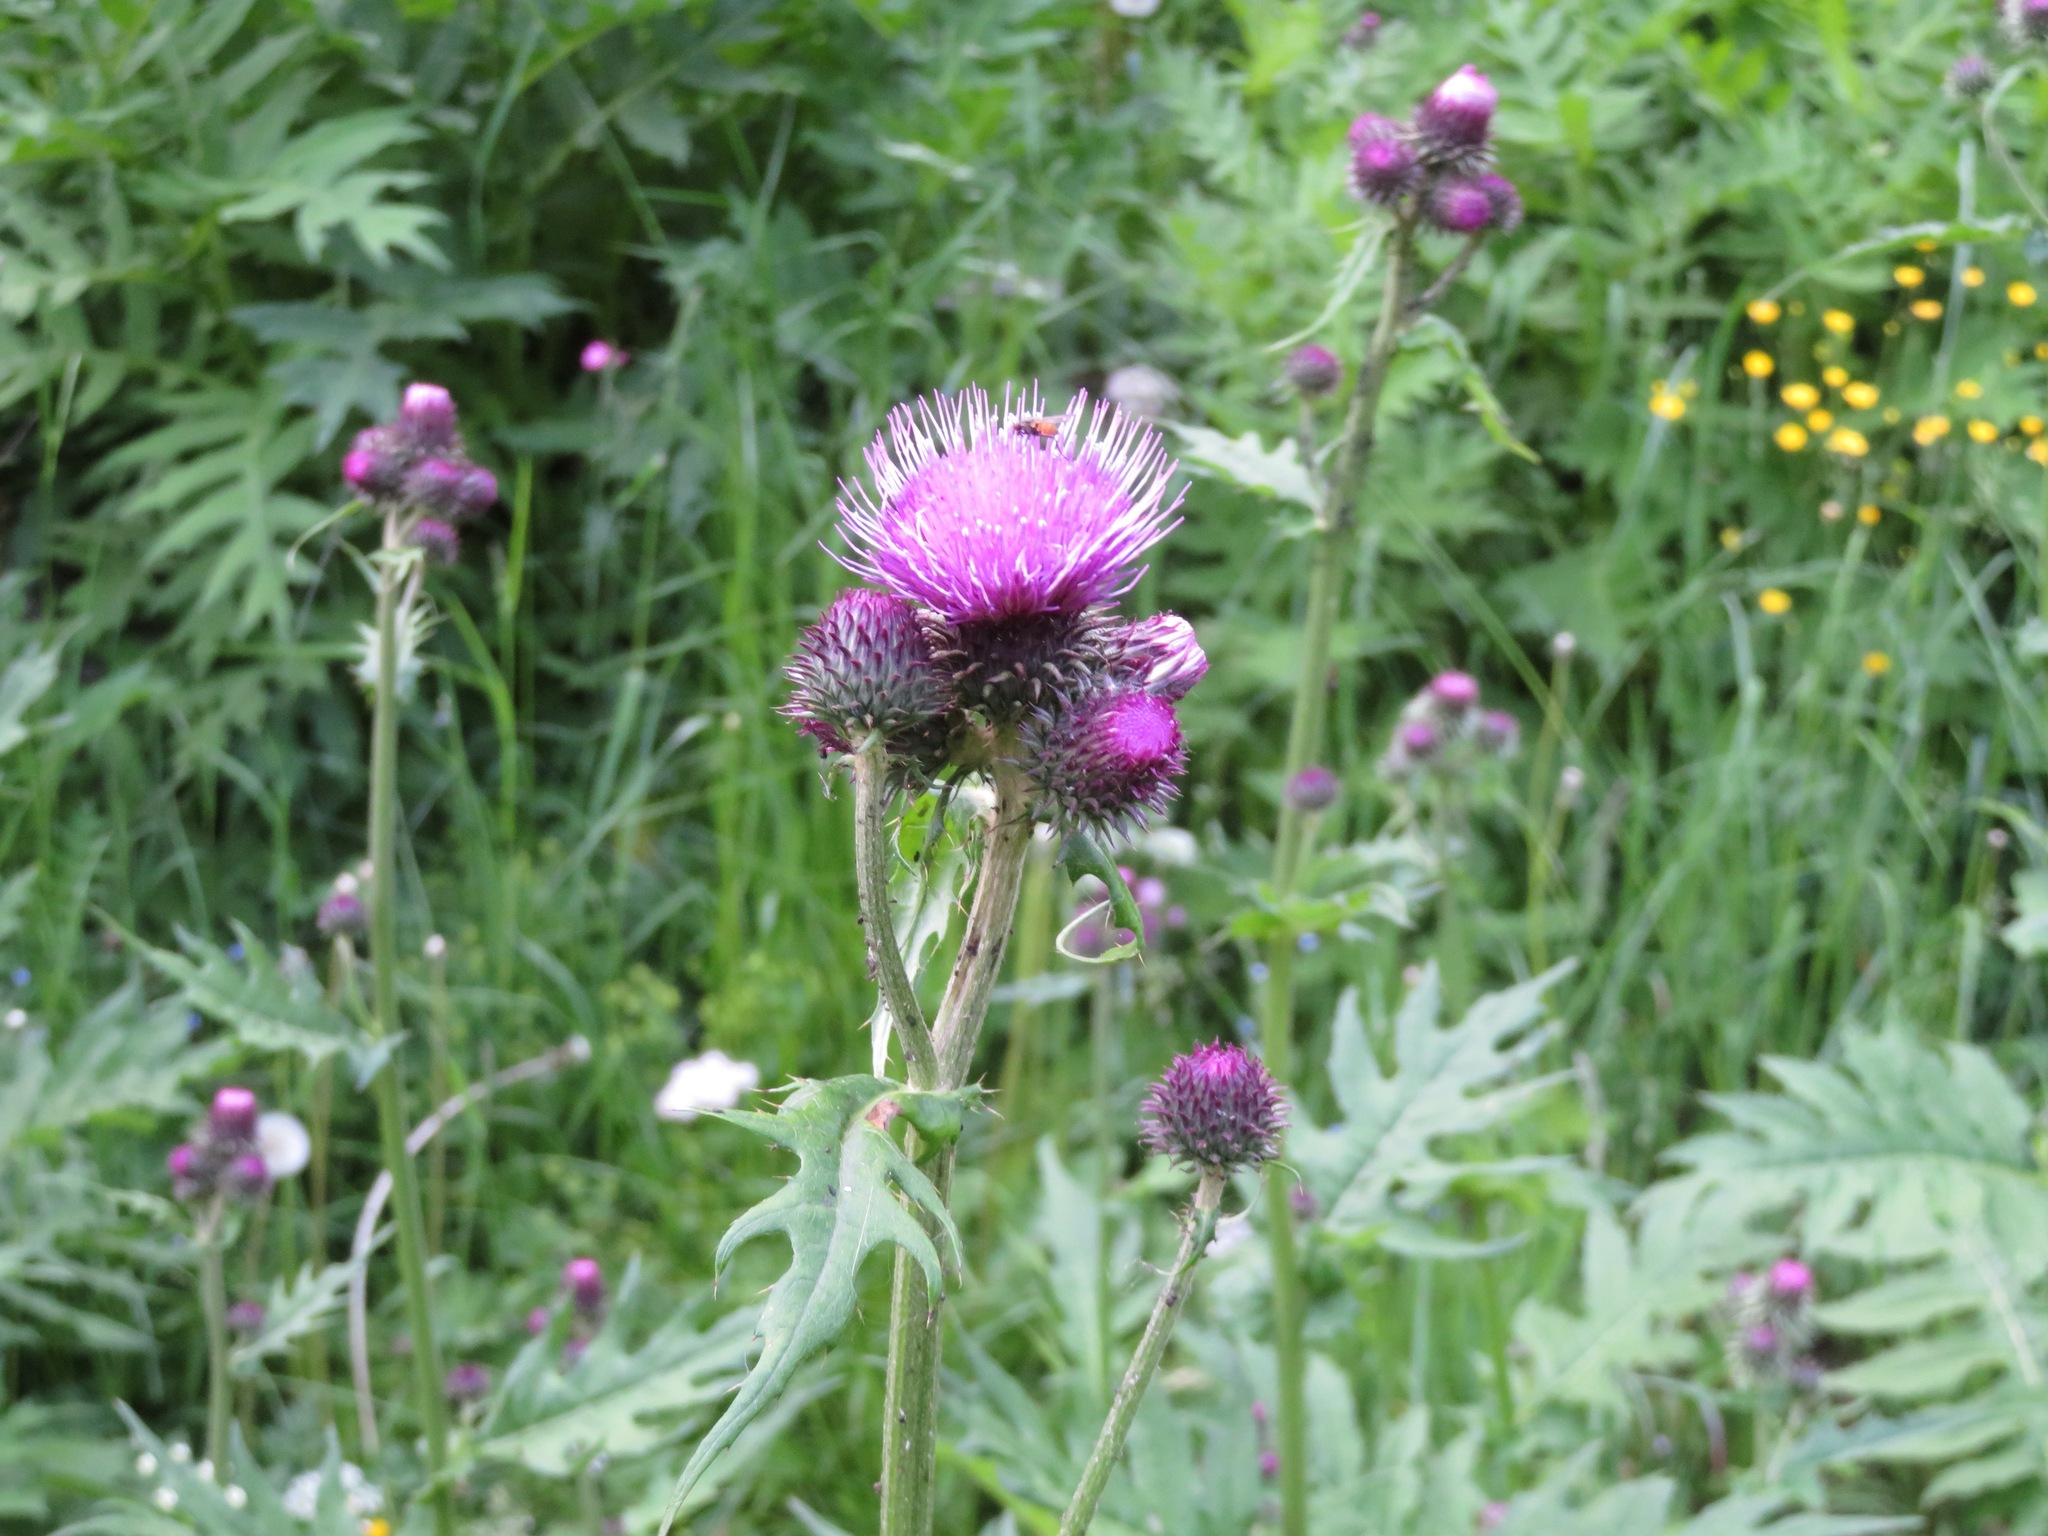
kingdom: Plantae
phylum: Tracheophyta
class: Magnoliopsida
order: Asterales
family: Asteraceae
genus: Cirsium
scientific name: Cirsium alsophilum
